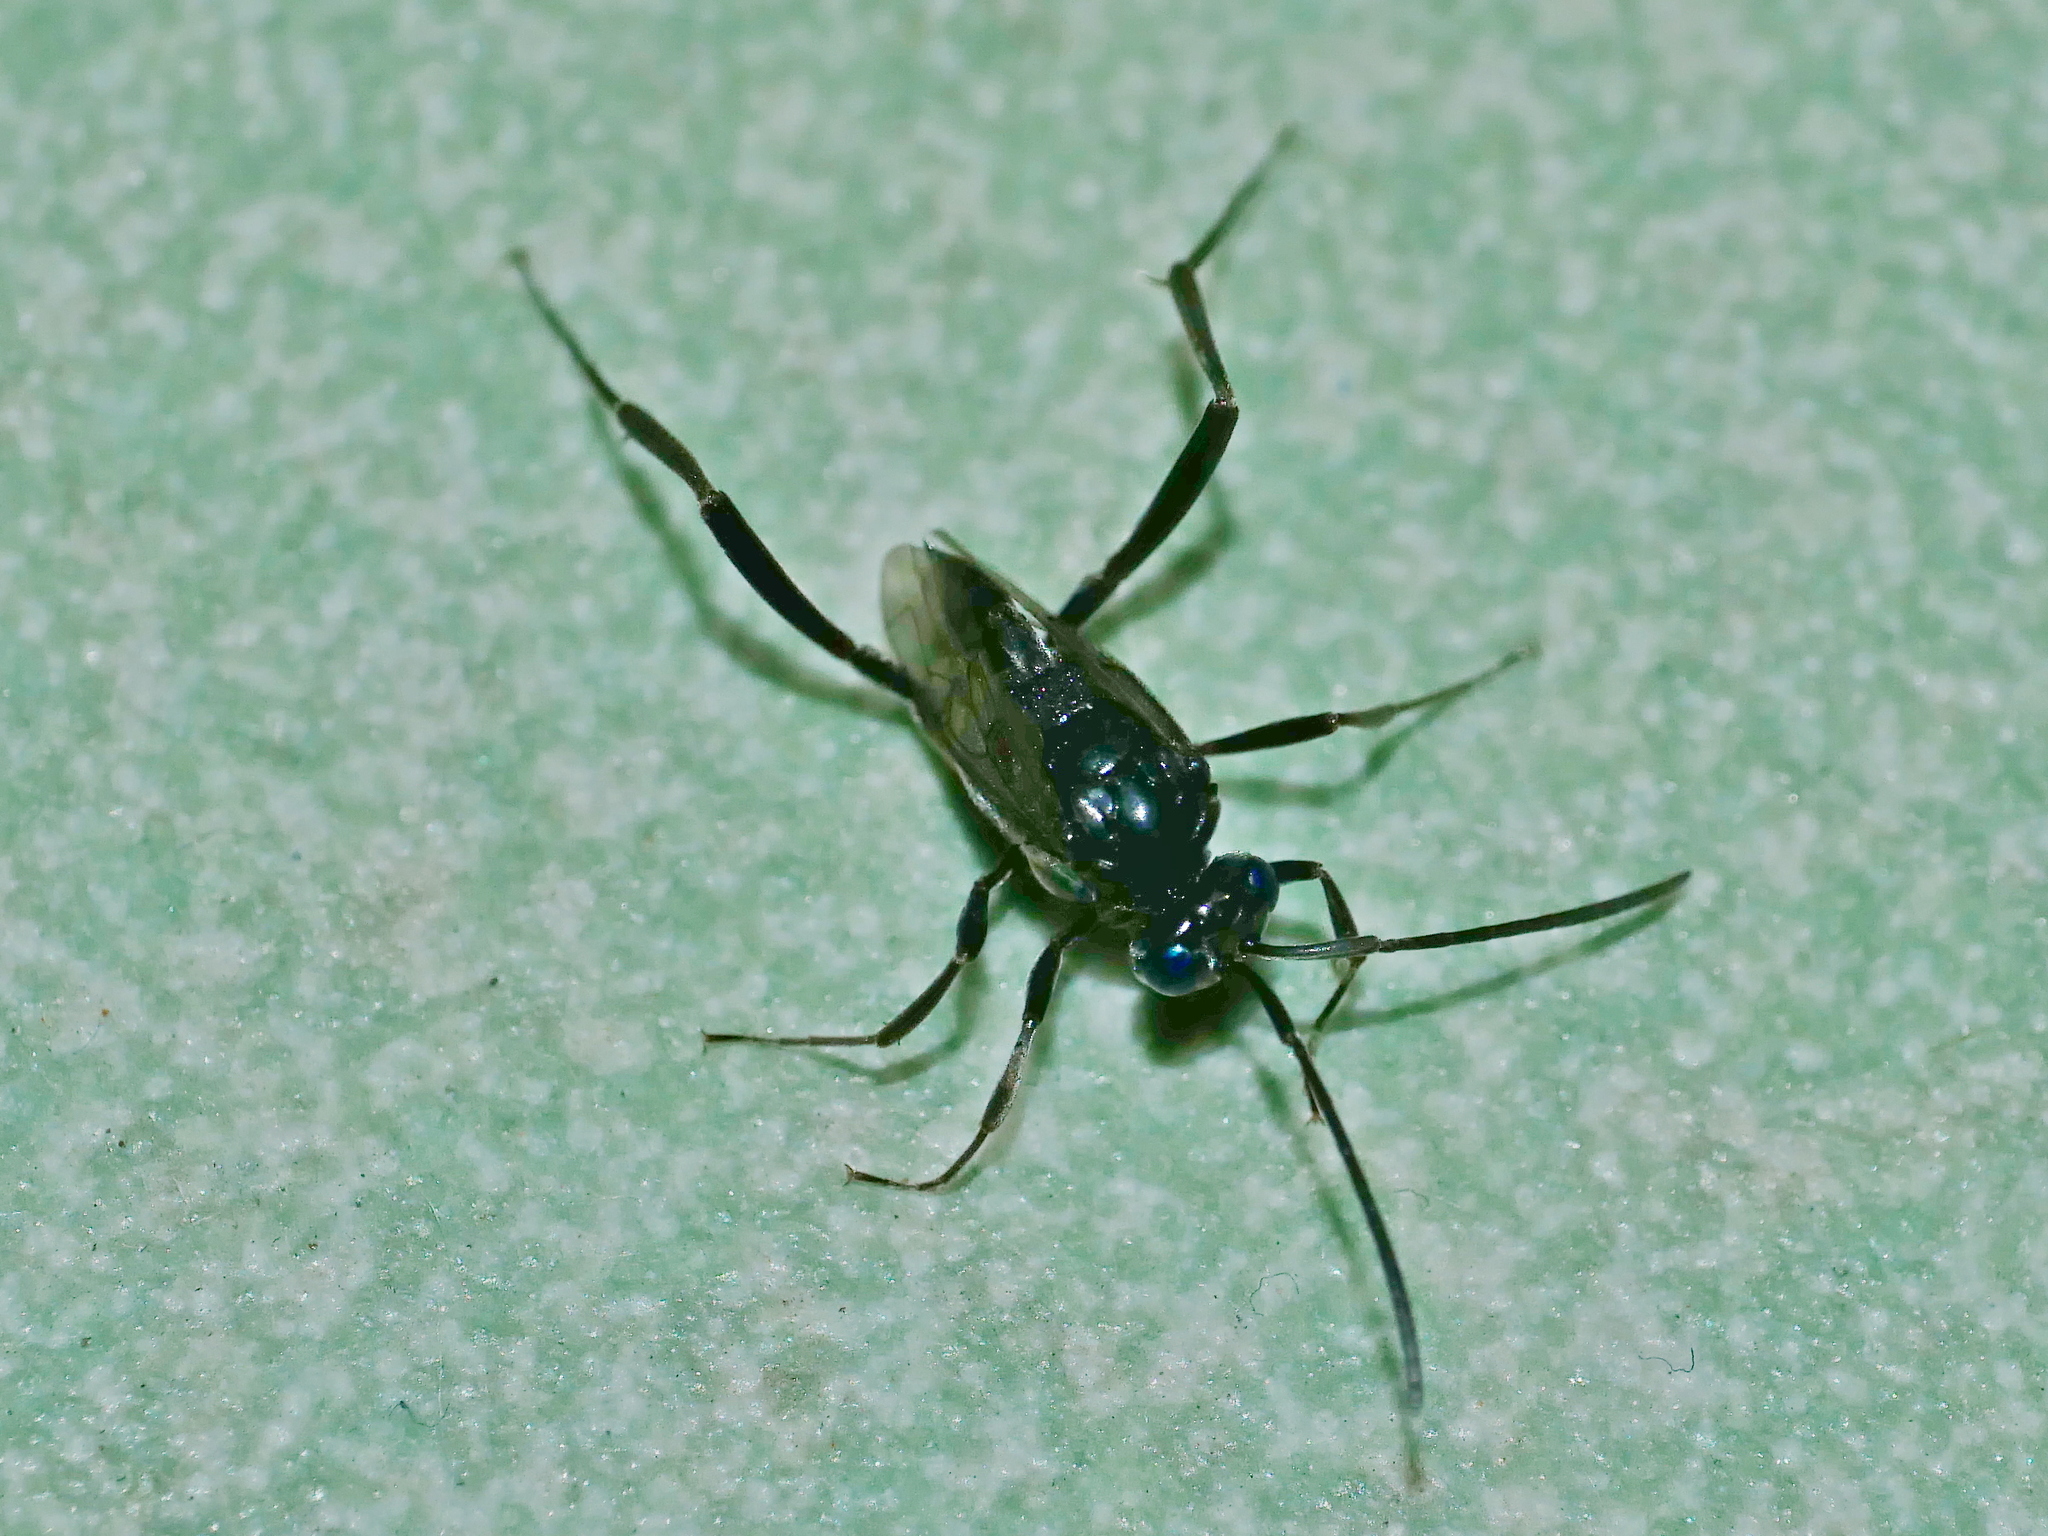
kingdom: Animalia
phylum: Arthropoda
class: Insecta
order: Hymenoptera
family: Evaniidae
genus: Evania
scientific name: Evania appendigaster
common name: Ensign wasp
